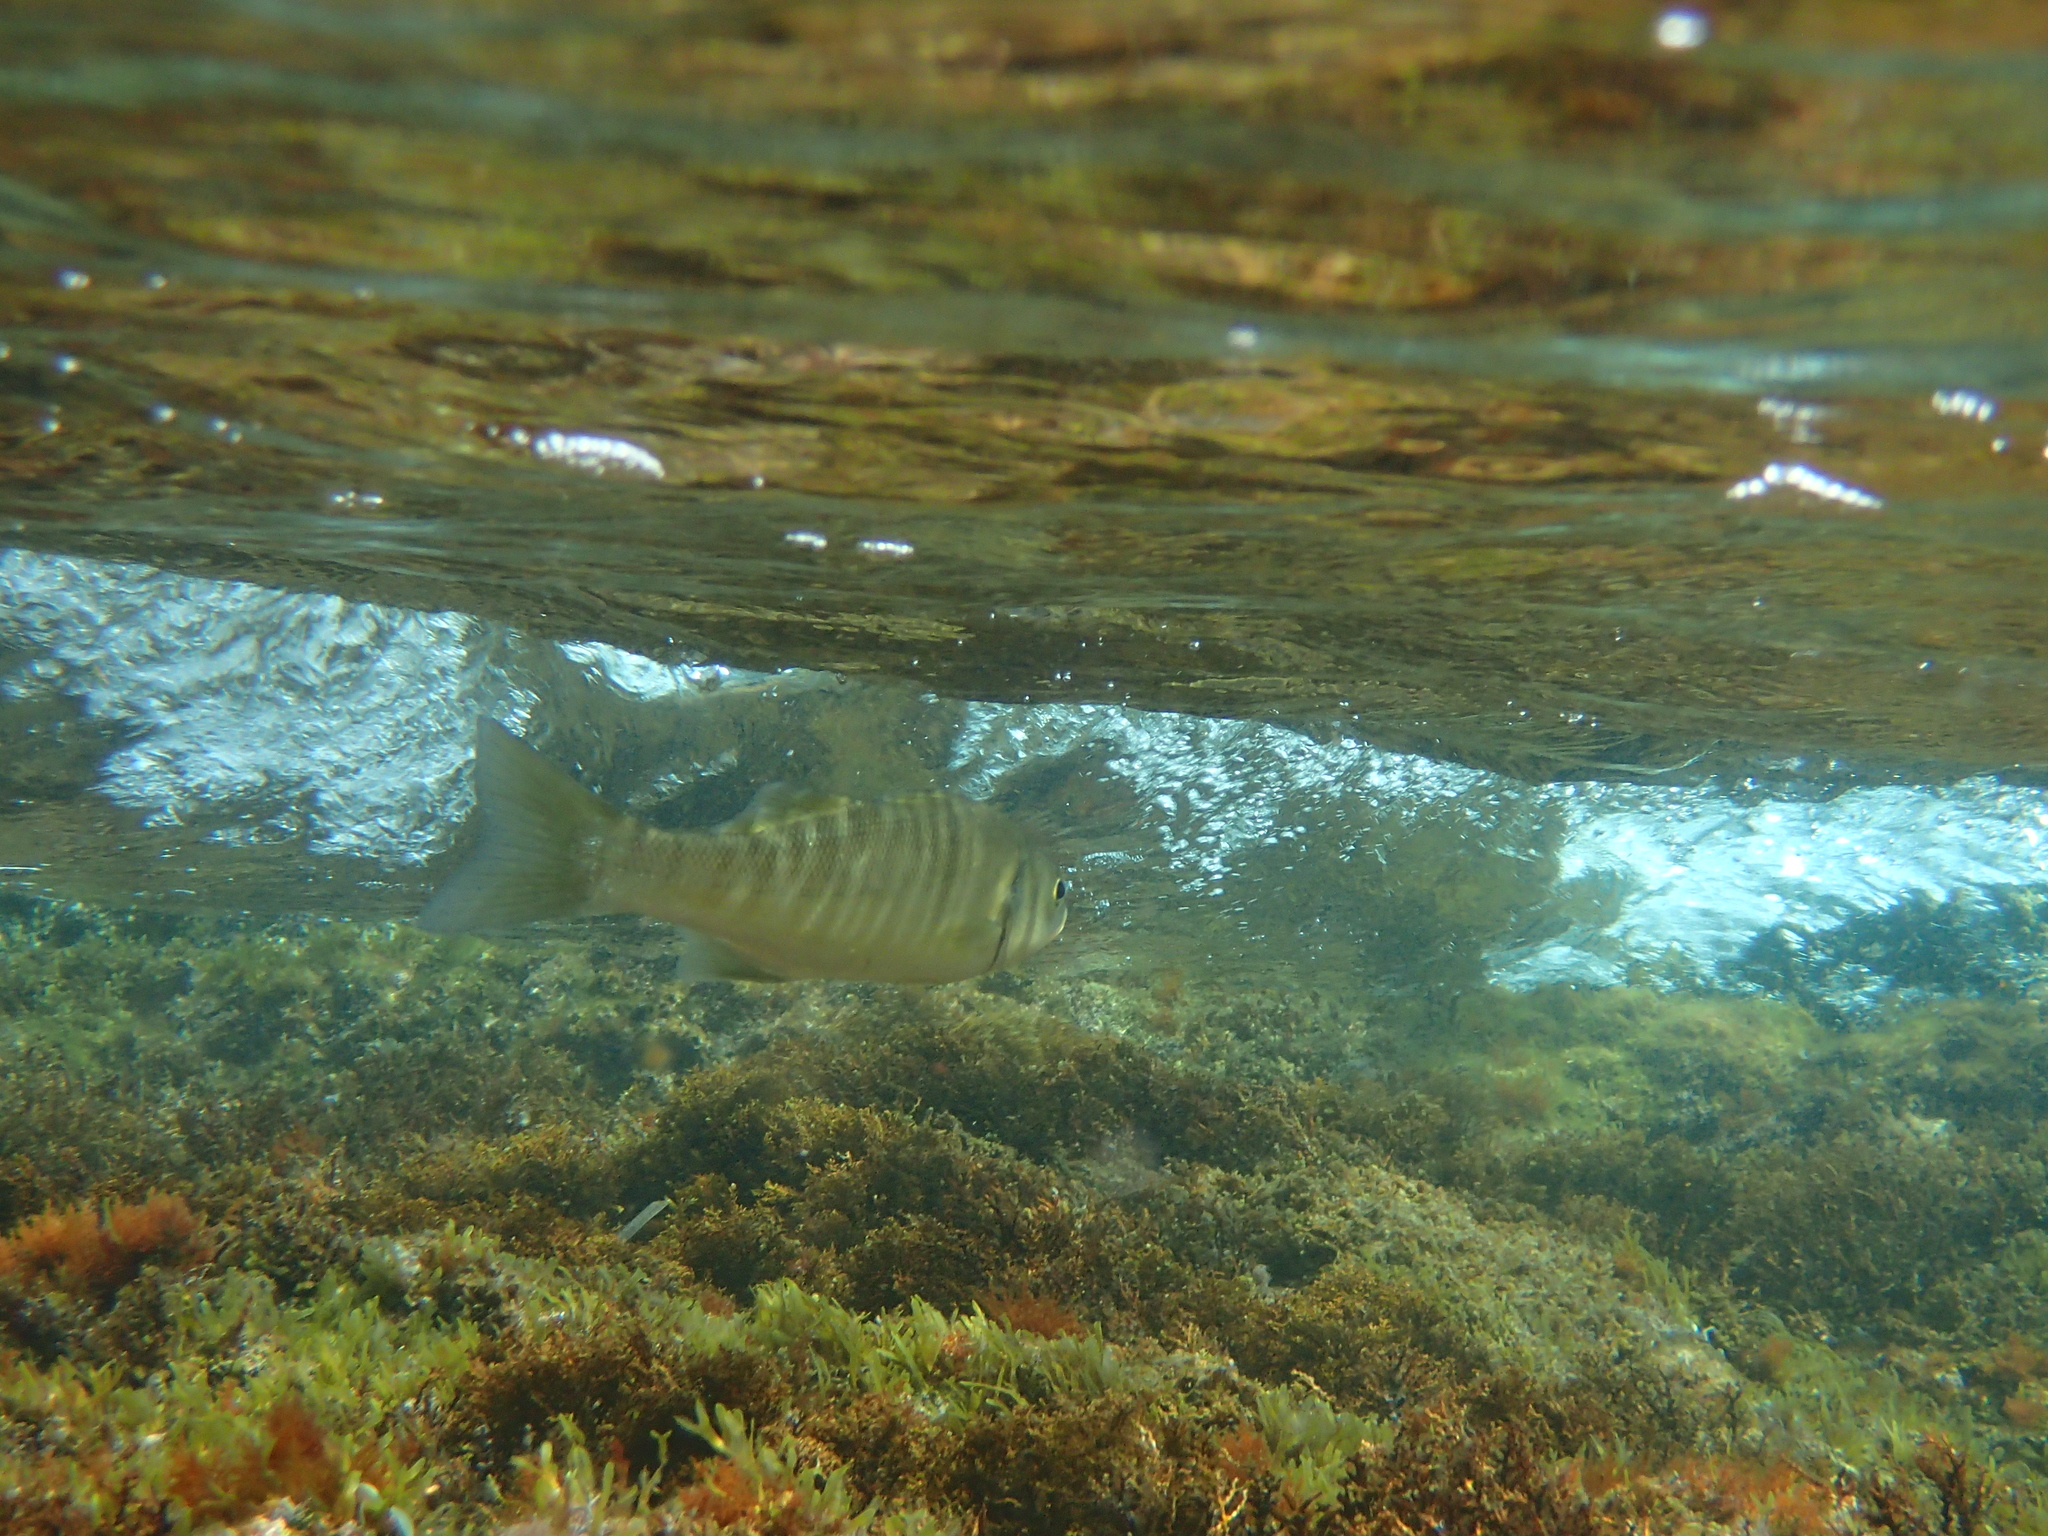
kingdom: Animalia
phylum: Chordata
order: Perciformes
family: Moronidae
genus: Dicentrarchus
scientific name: Dicentrarchus labrax
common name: European seabass
